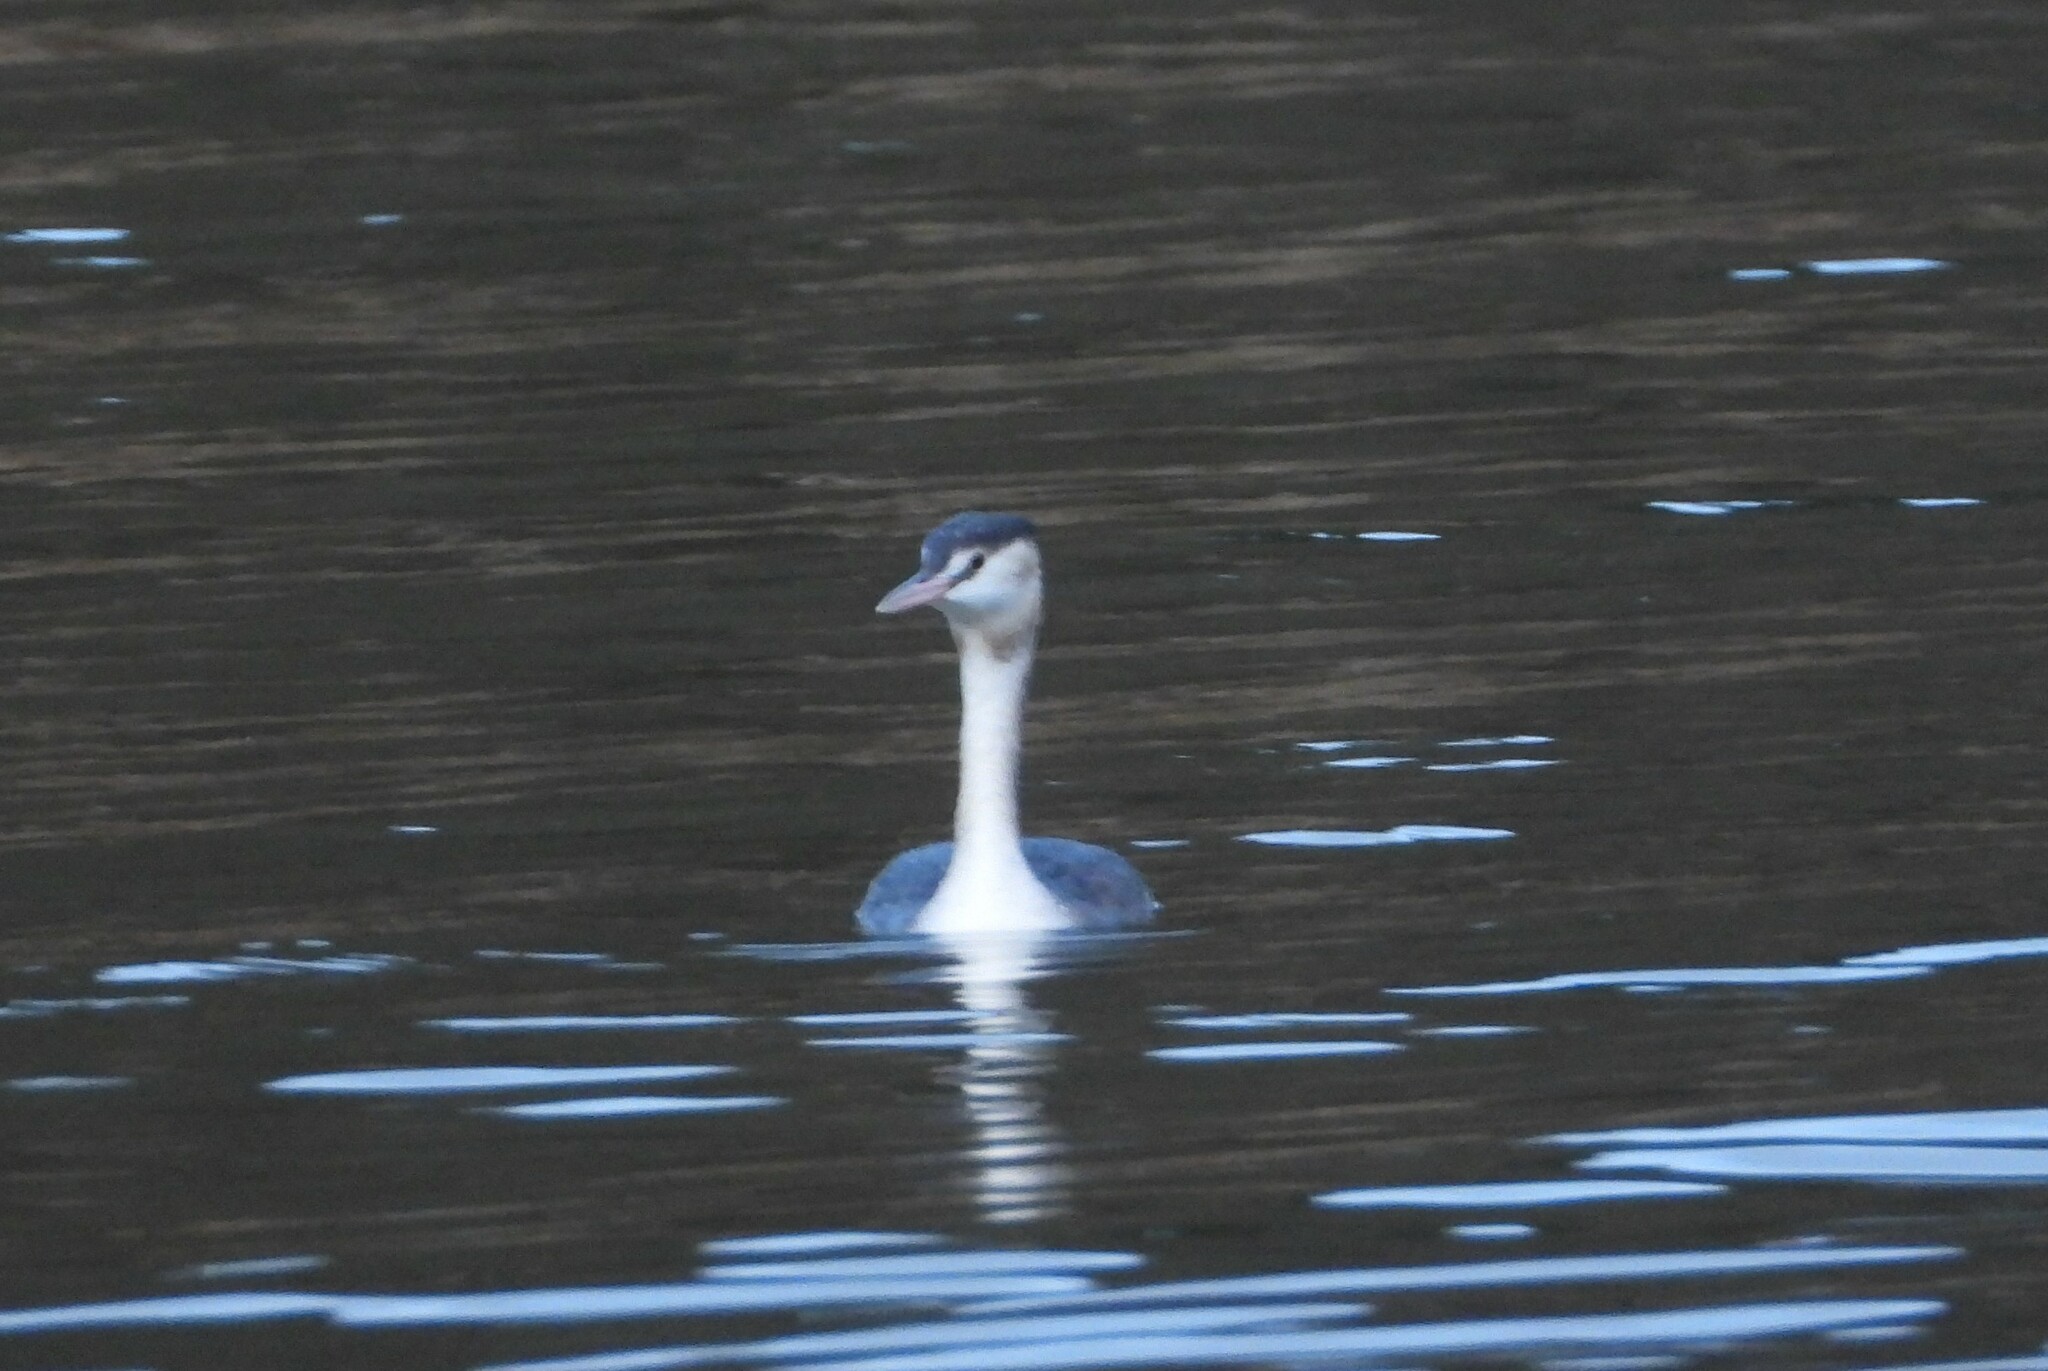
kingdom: Animalia
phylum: Chordata
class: Aves
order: Podicipediformes
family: Podicipedidae
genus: Podiceps
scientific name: Podiceps cristatus
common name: Great crested grebe
